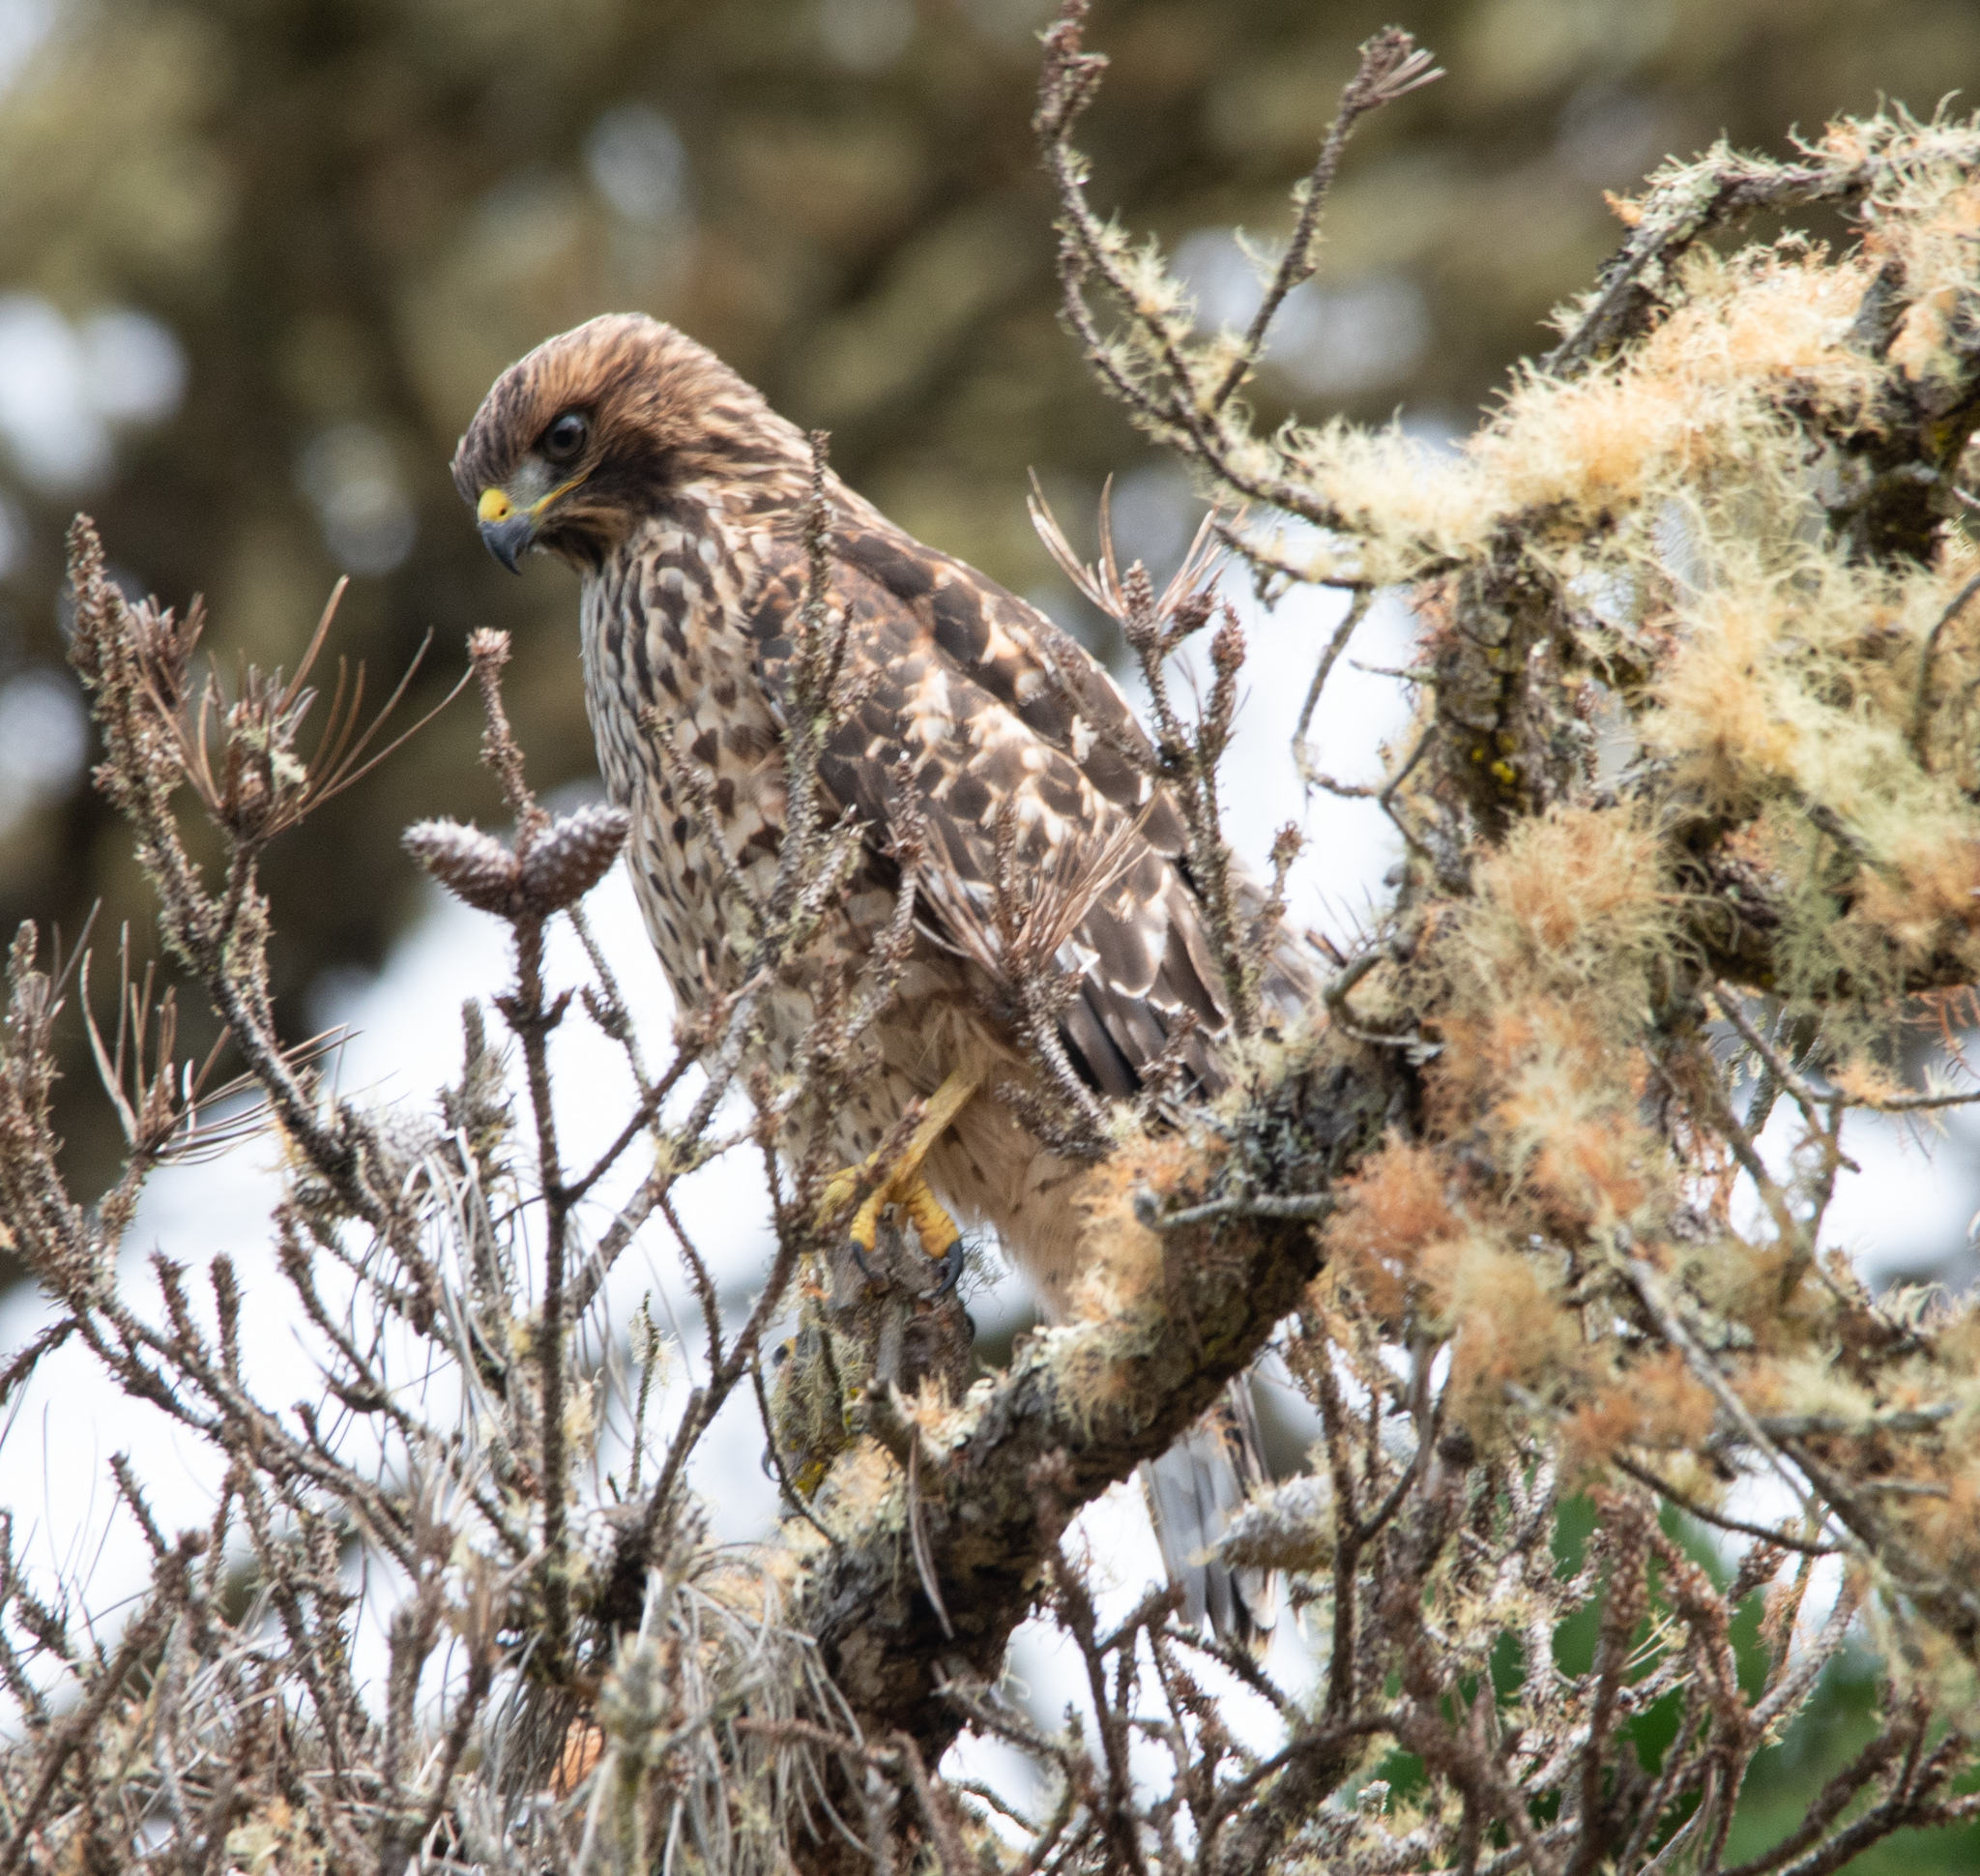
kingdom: Animalia
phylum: Chordata
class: Aves
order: Accipitriformes
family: Accipitridae
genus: Buteo
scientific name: Buteo lineatus
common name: Red-shouldered hawk
